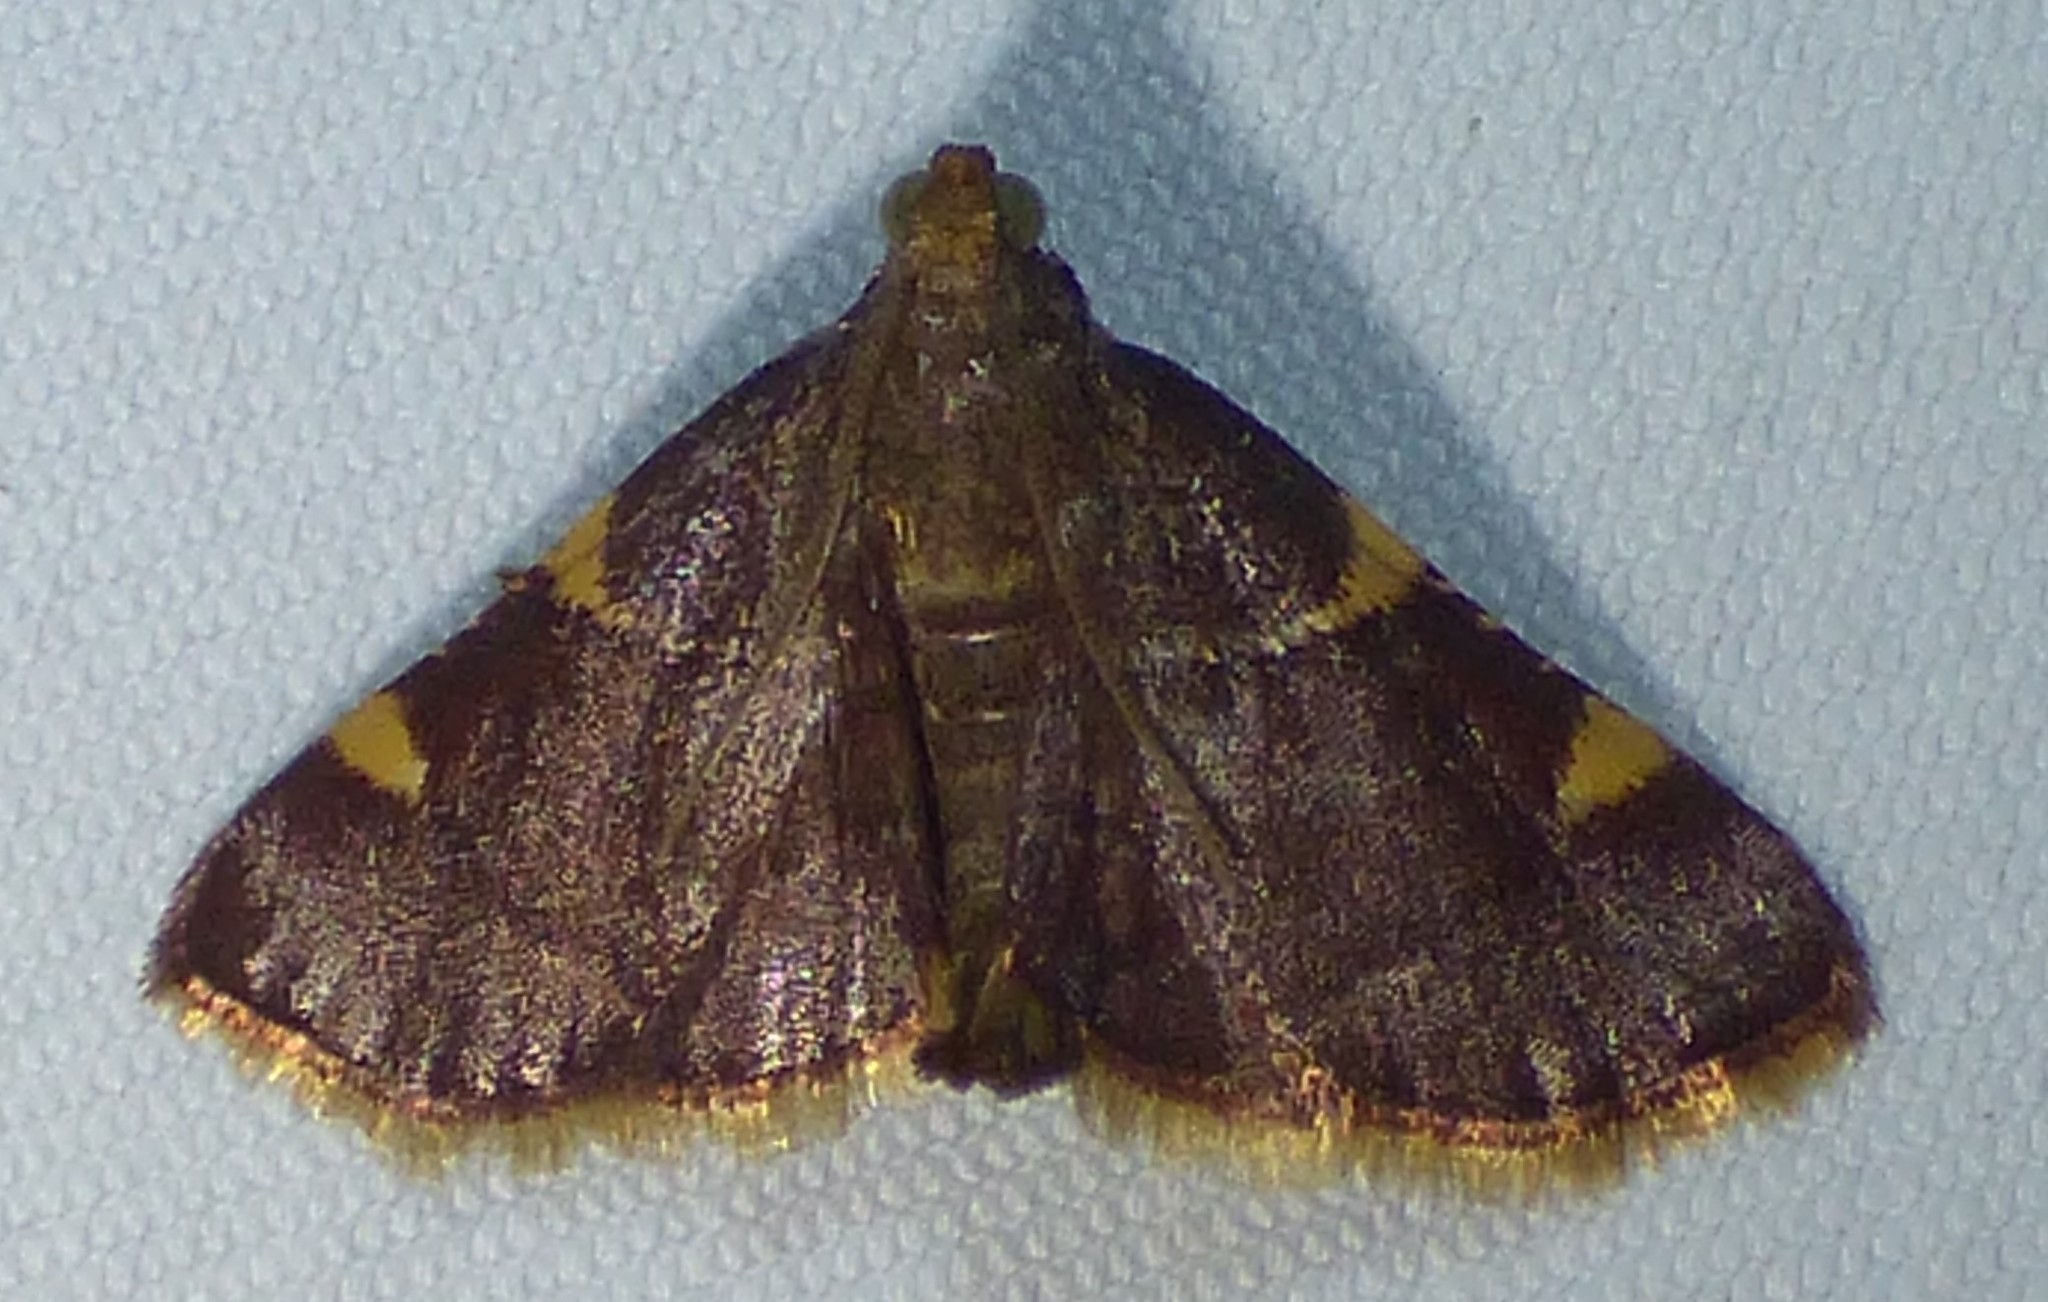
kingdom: Animalia
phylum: Arthropoda
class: Insecta
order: Lepidoptera
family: Pyralidae
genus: Hypsopygia
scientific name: Hypsopygia olinalis
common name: Yellow-fringed dolichomia moth
